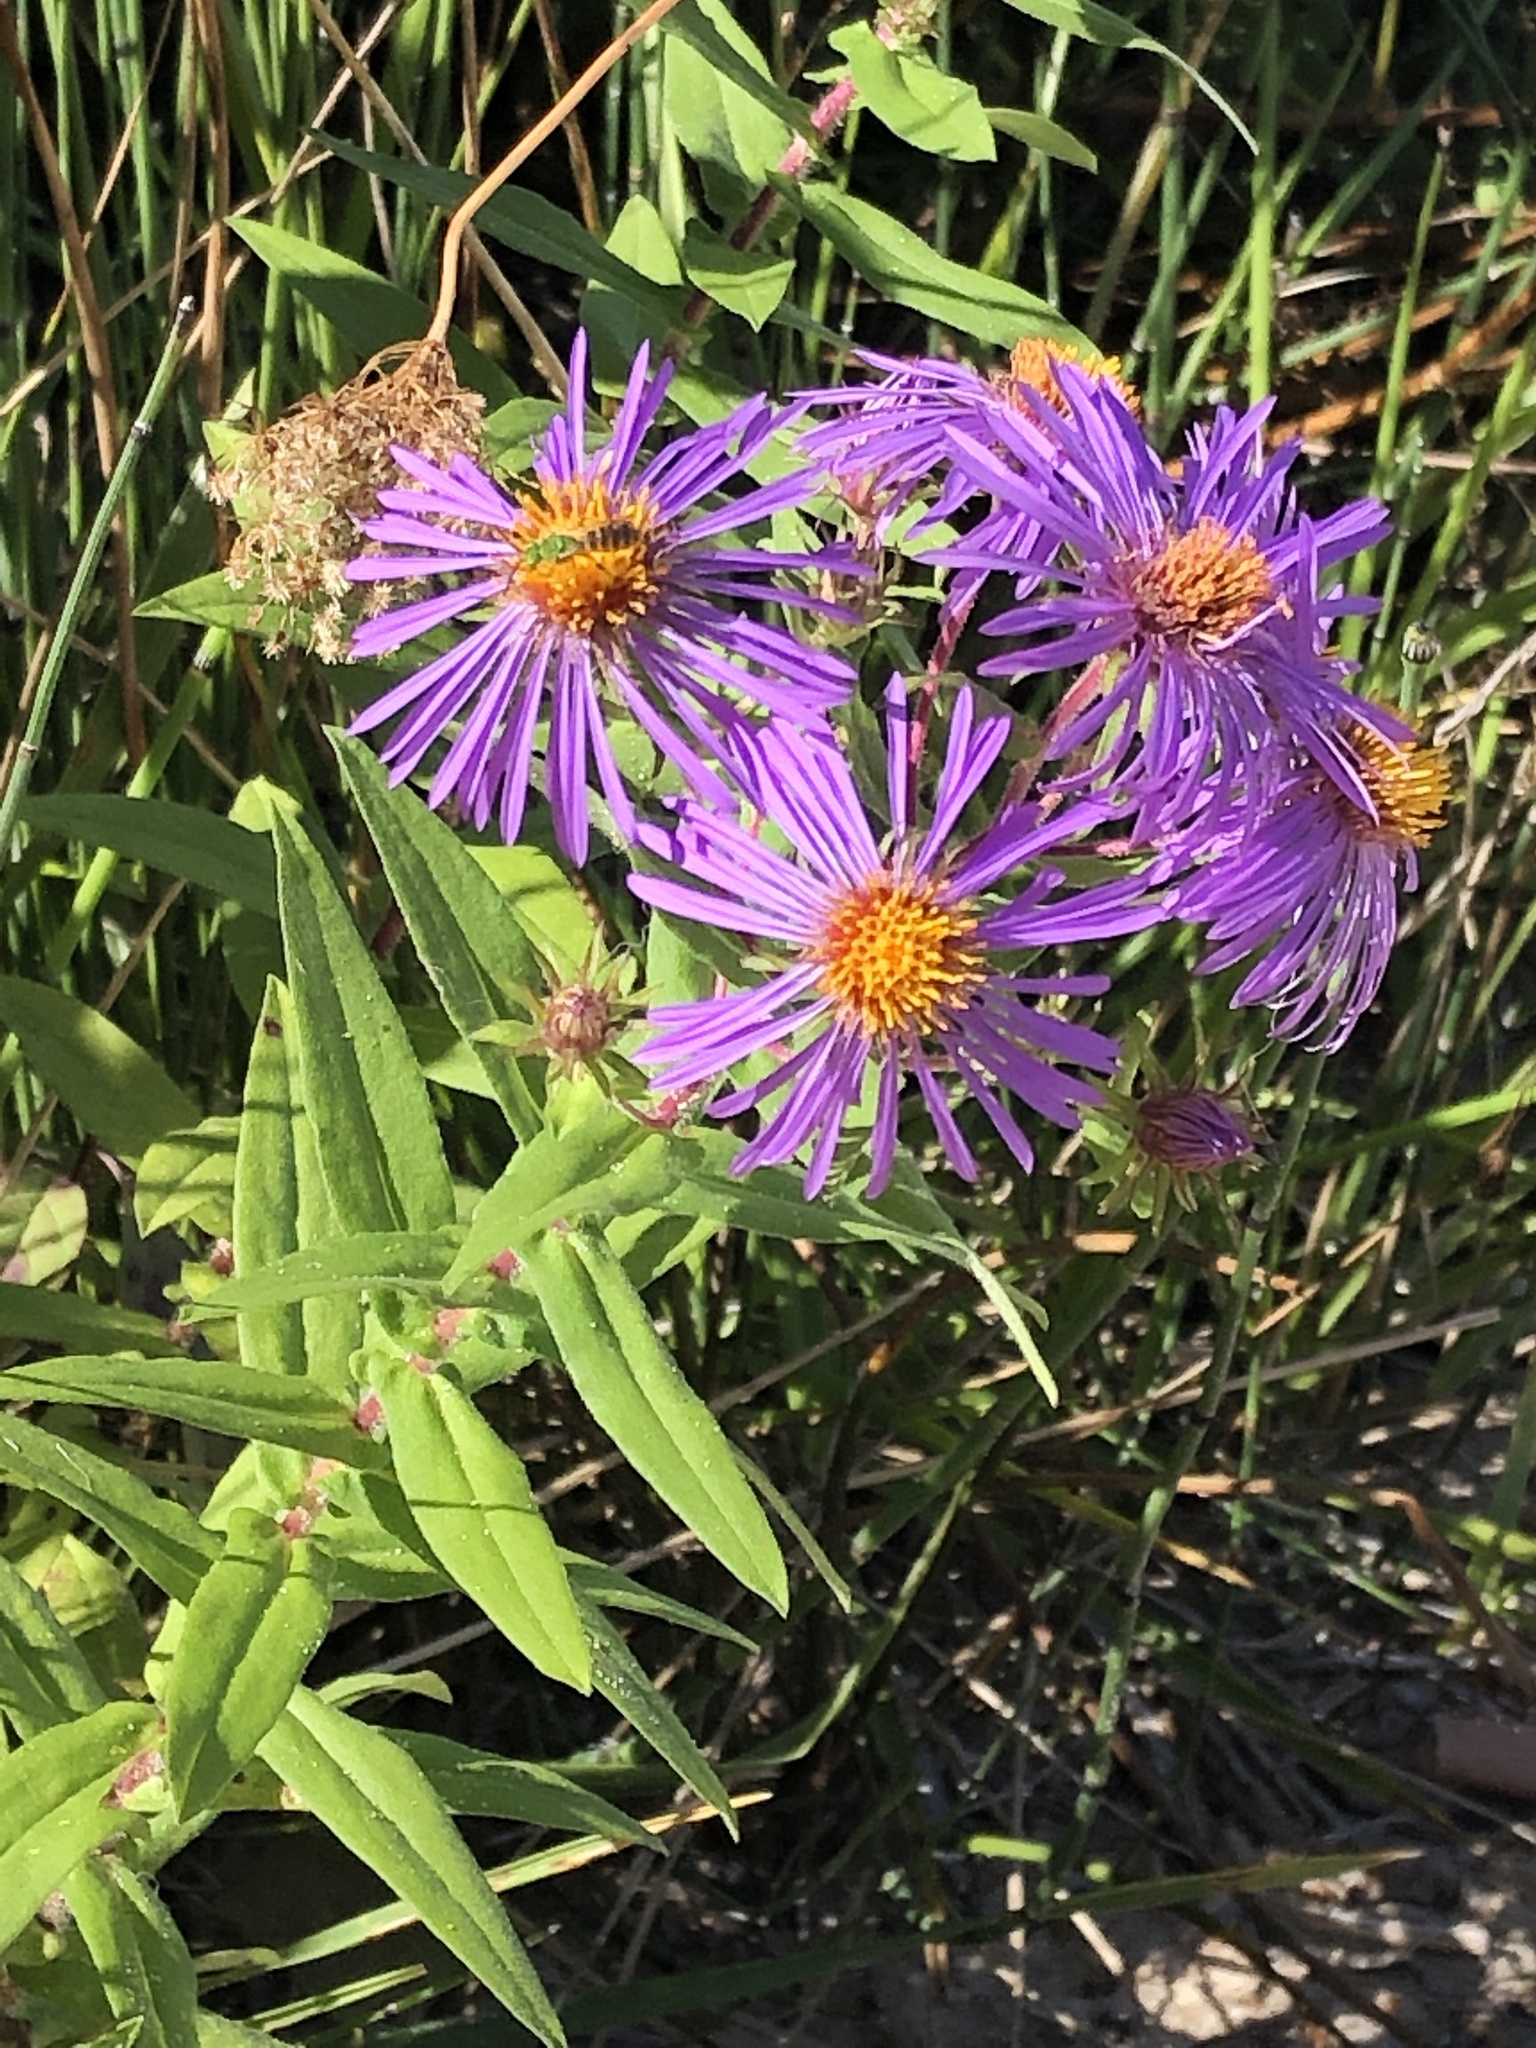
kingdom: Plantae
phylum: Tracheophyta
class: Magnoliopsida
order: Asterales
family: Asteraceae
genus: Symphyotrichum
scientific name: Symphyotrichum novae-angliae
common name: Michaelmas daisy
